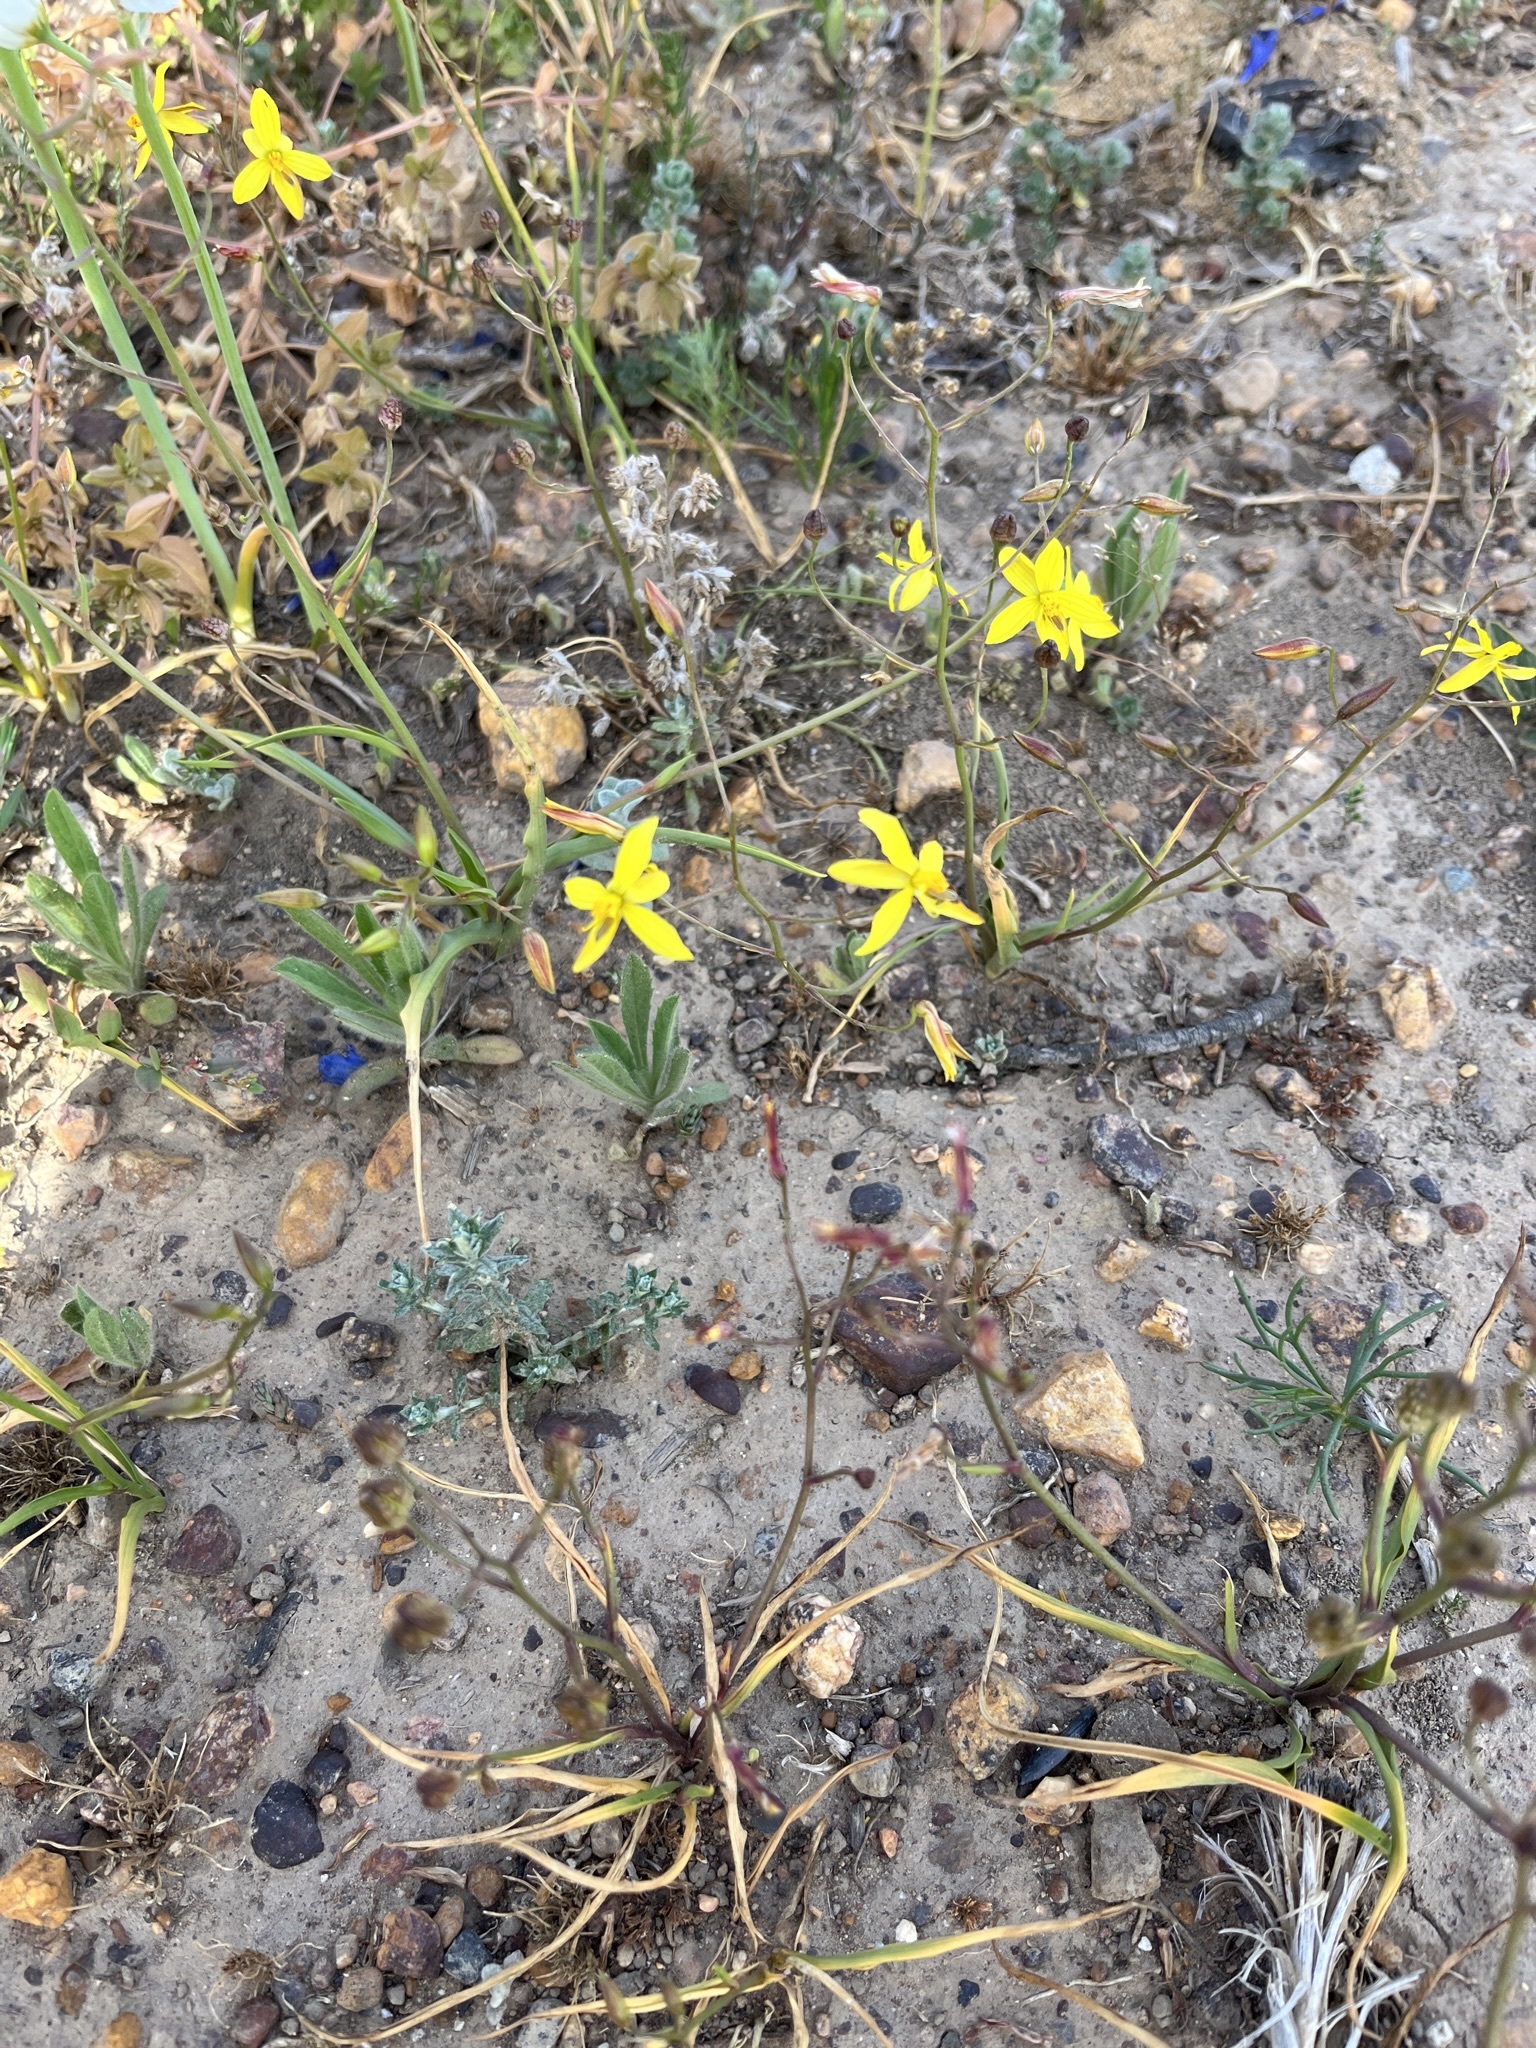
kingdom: Plantae
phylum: Tracheophyta
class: Liliopsida
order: Asparagales
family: Tecophilaeaceae
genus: Cyanella
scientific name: Cyanella lutea
